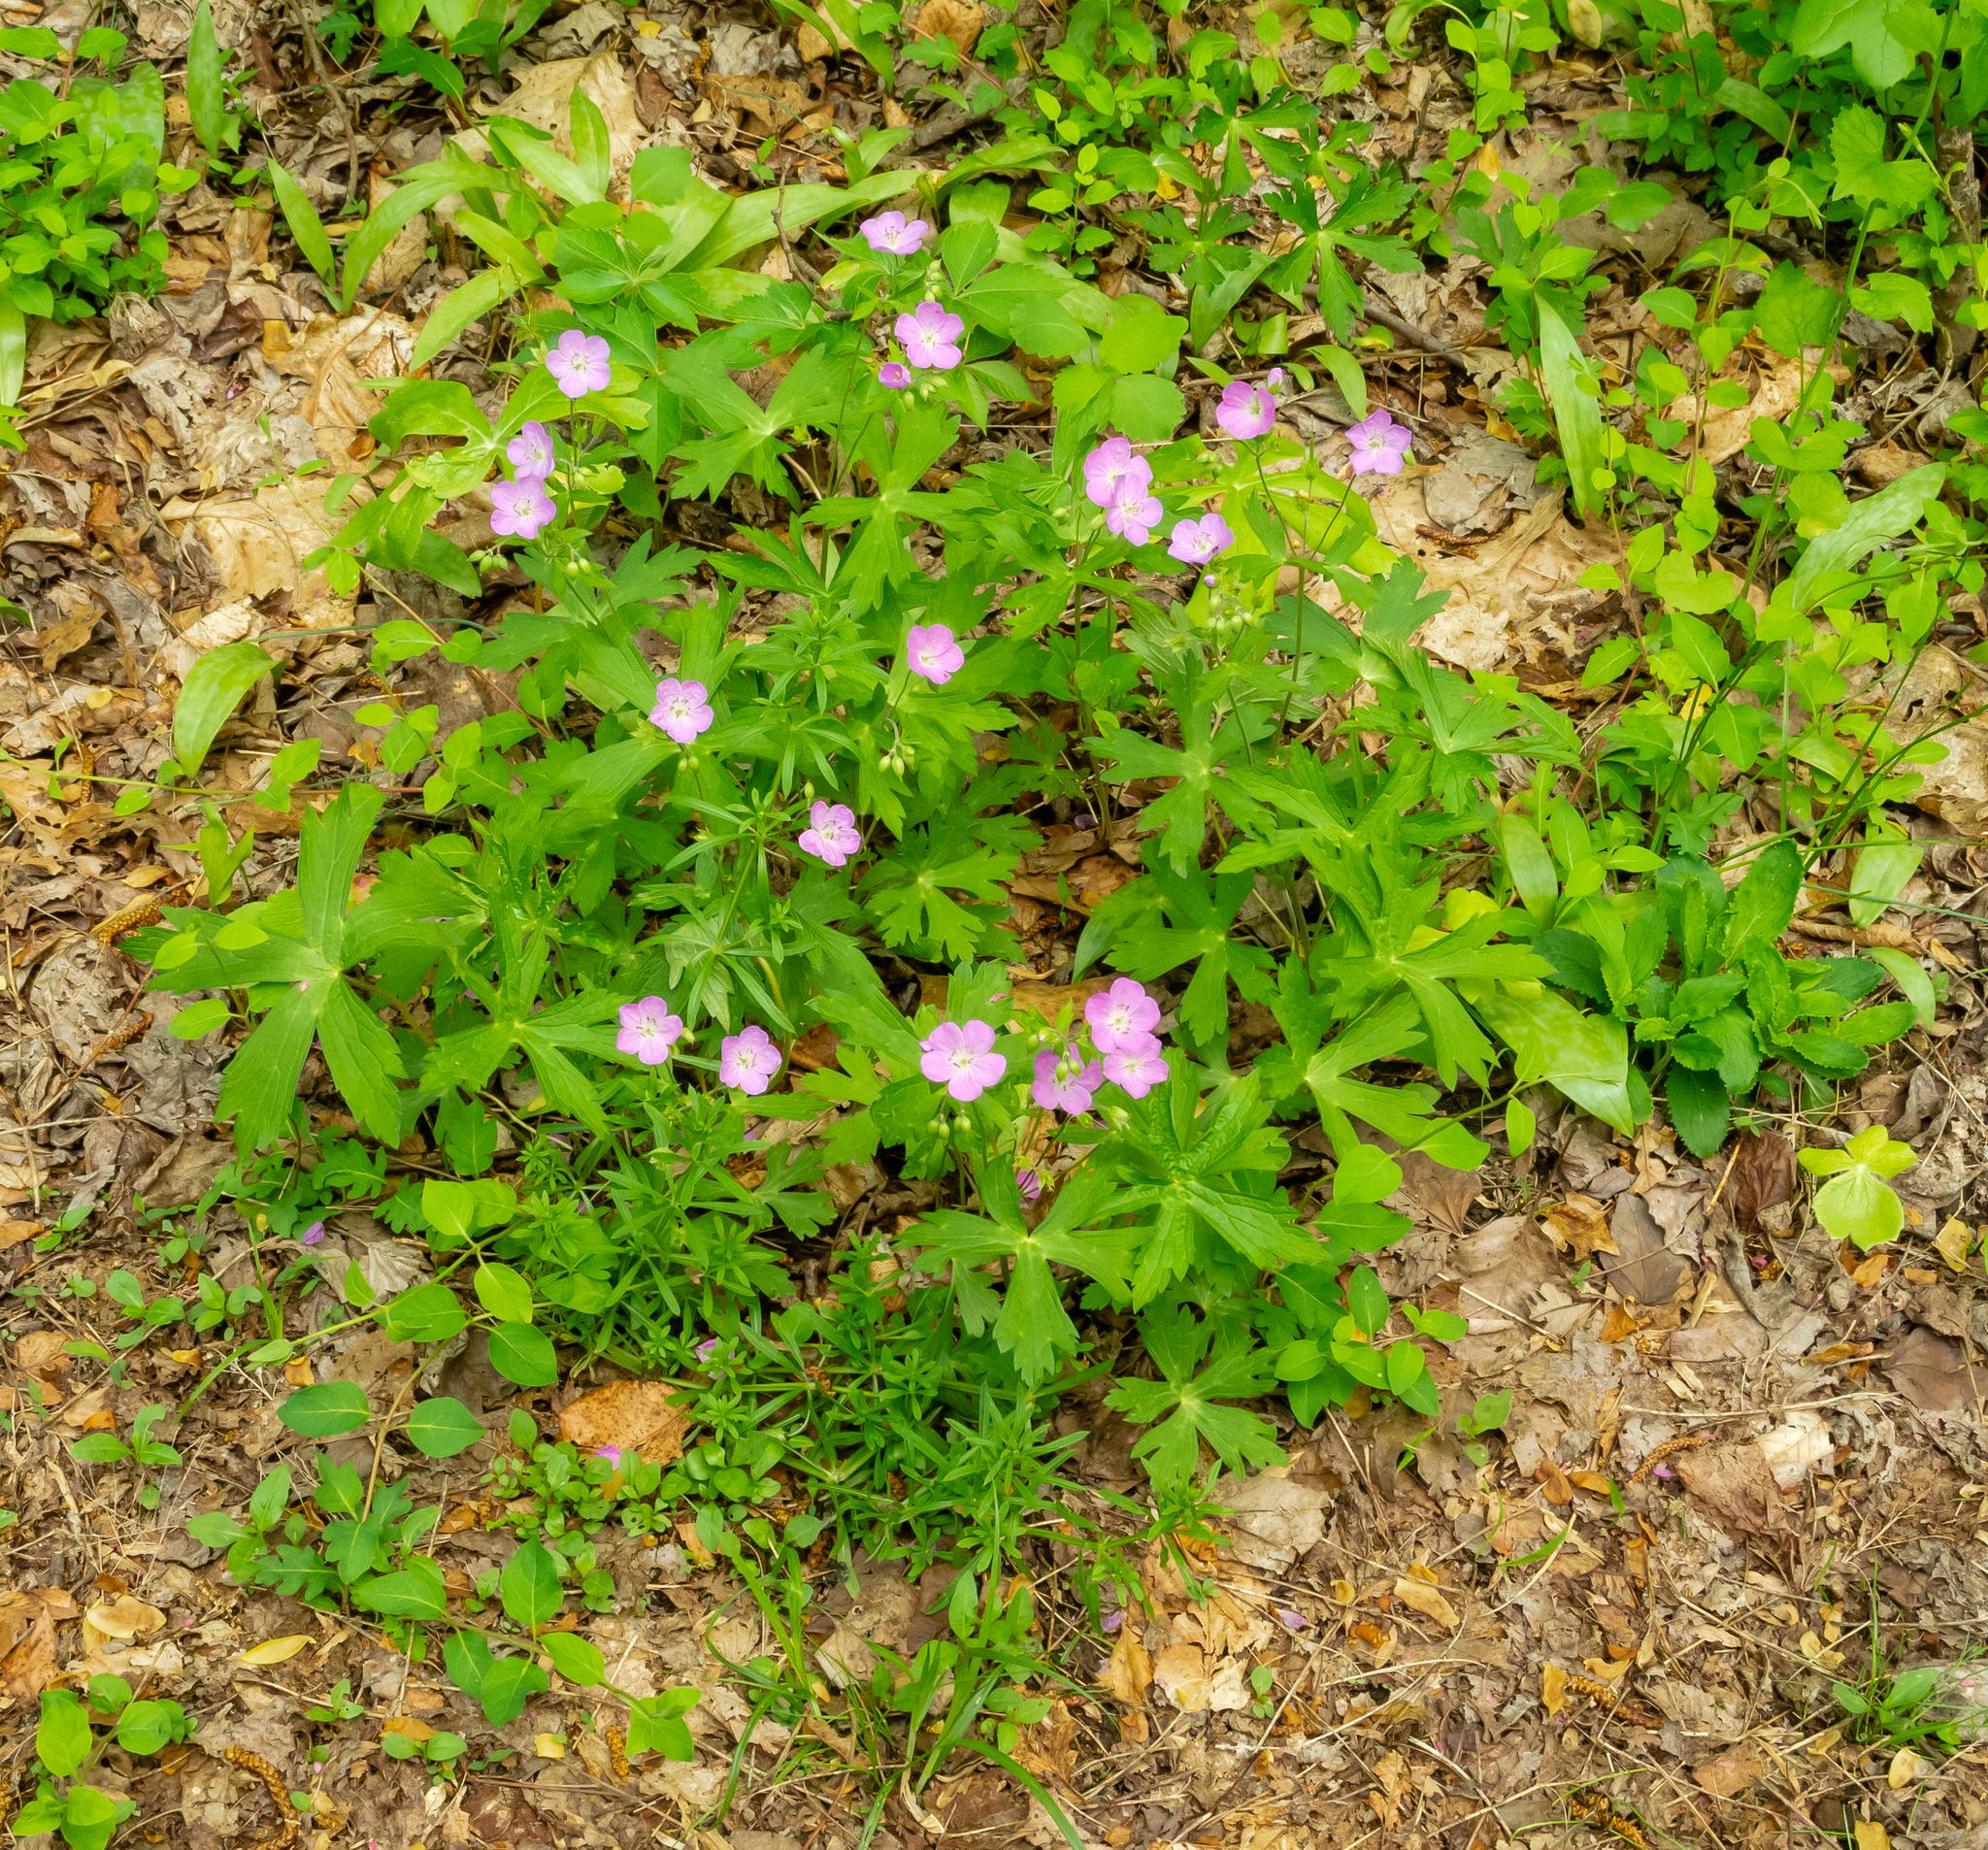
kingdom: Plantae
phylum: Tracheophyta
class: Magnoliopsida
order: Geraniales
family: Geraniaceae
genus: Geranium
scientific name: Geranium maculatum
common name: Spotted geranium
